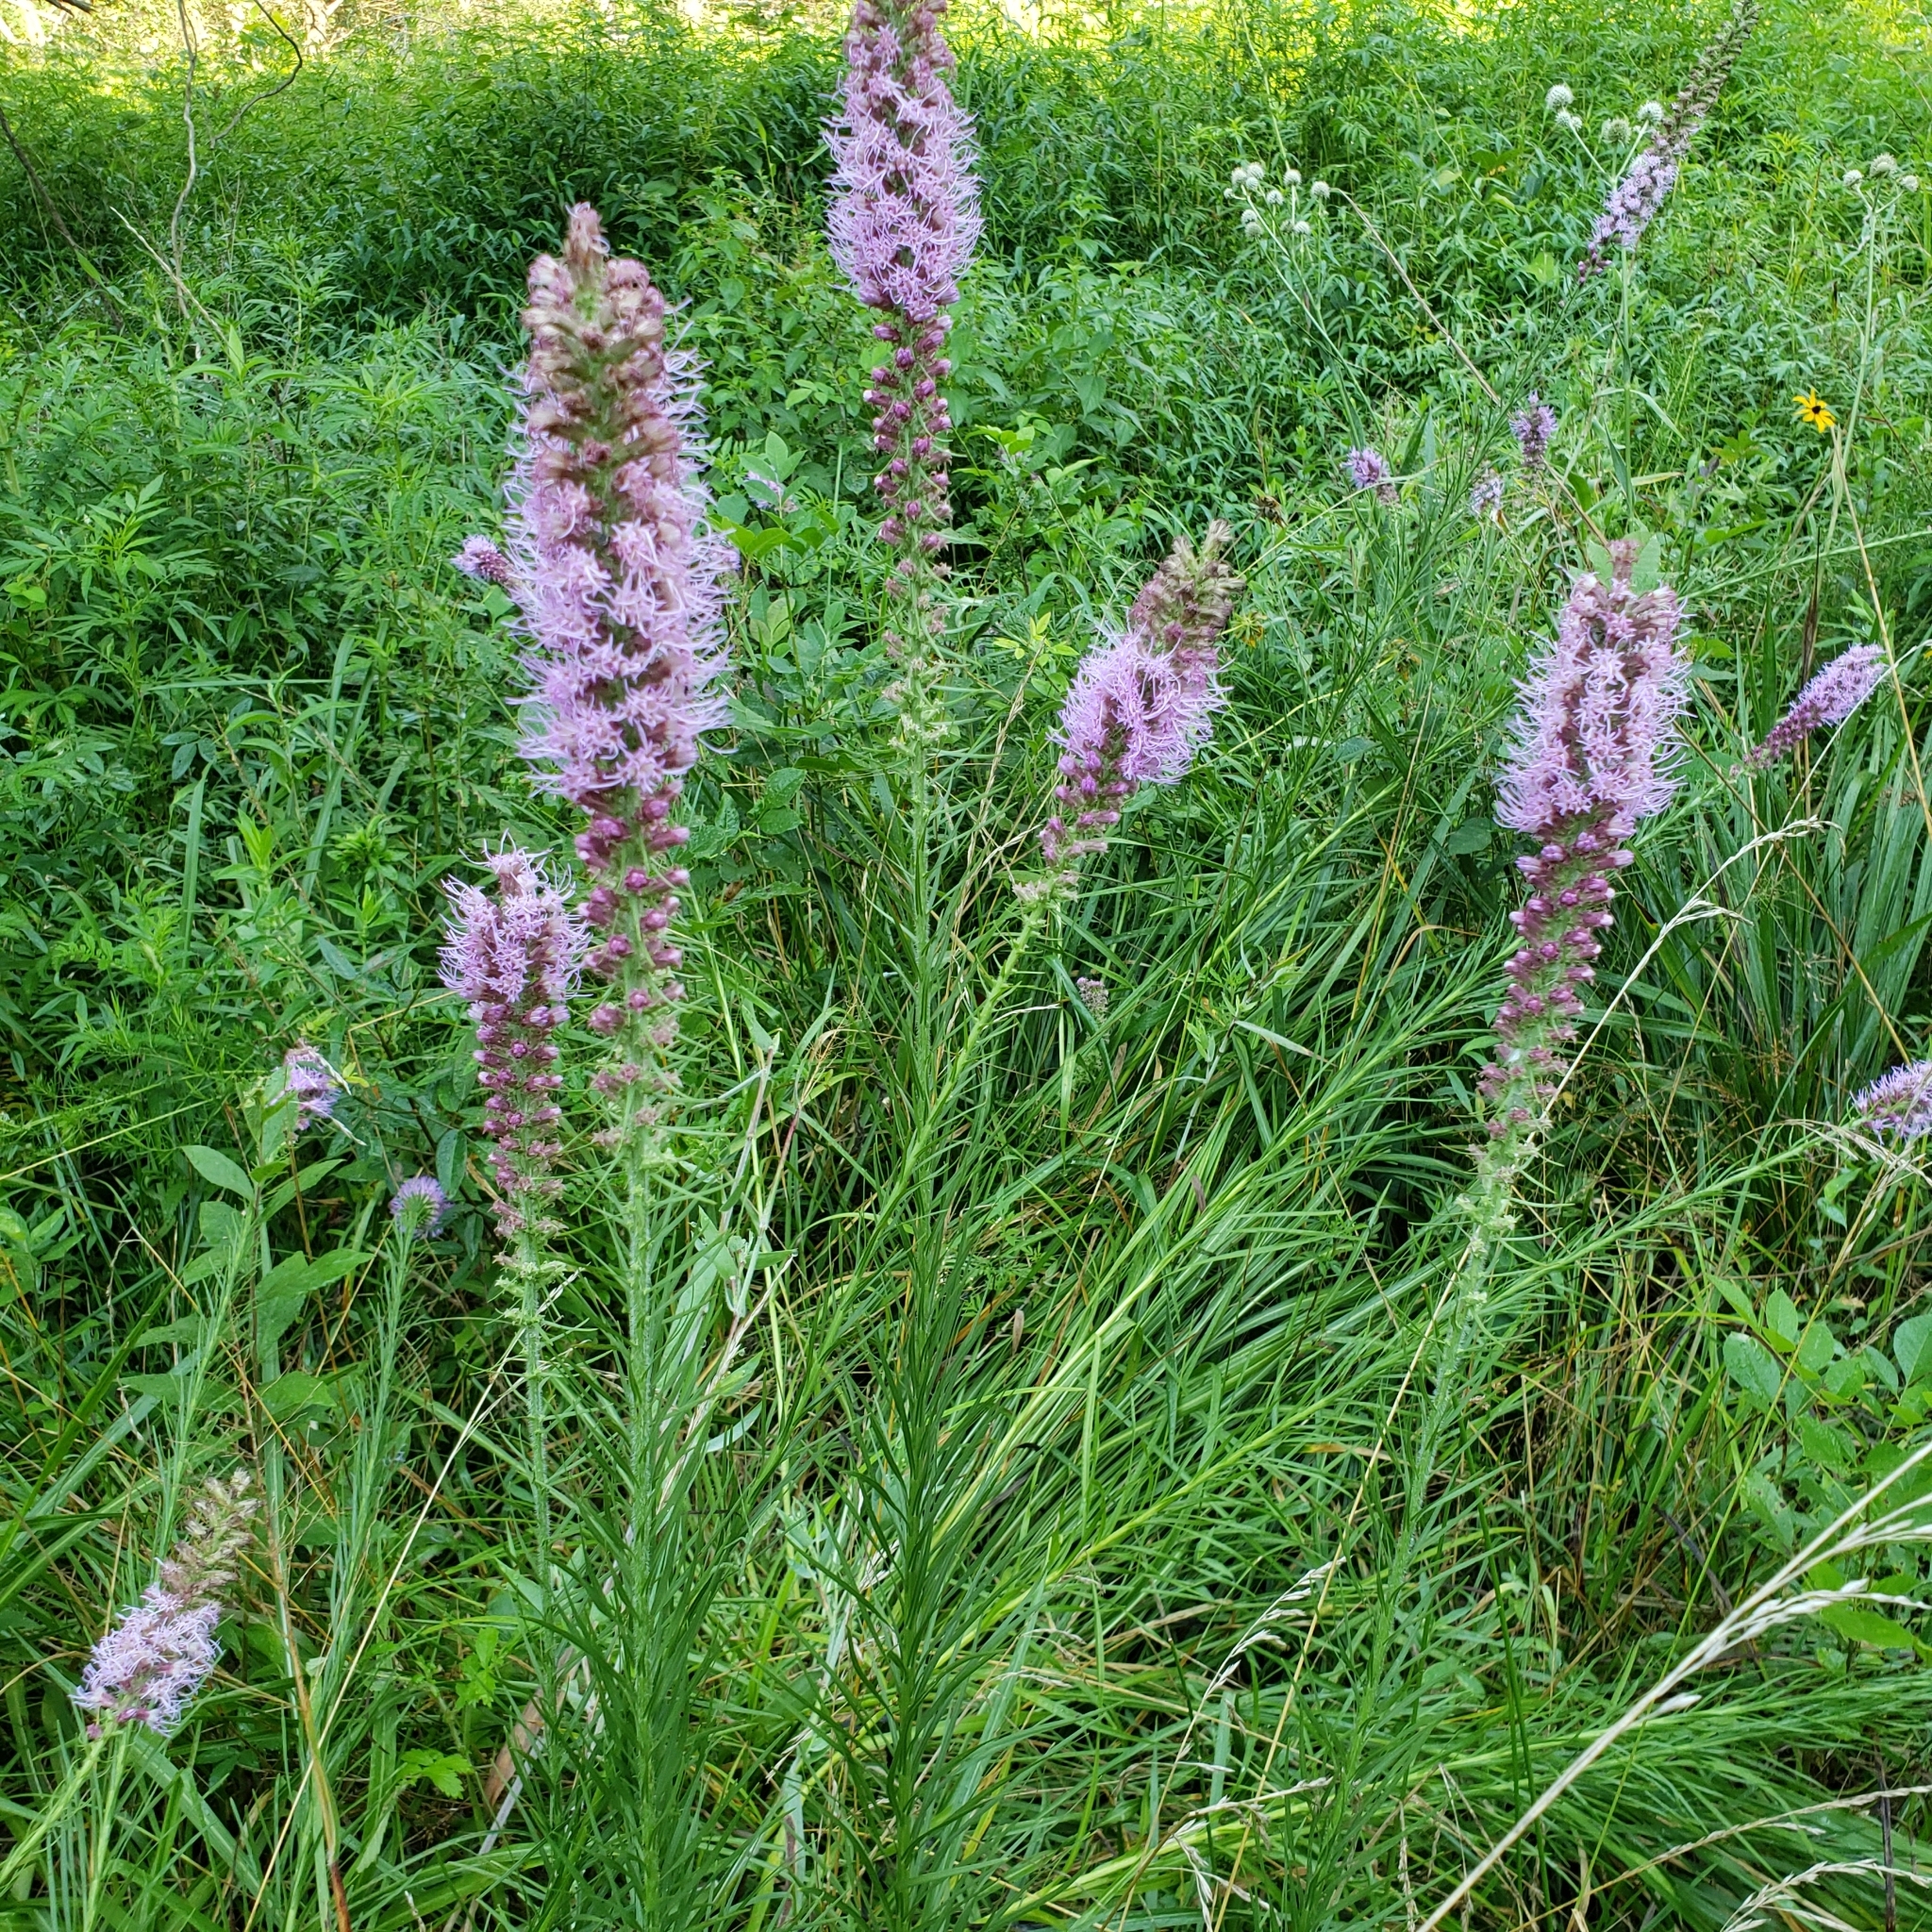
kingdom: Plantae
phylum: Tracheophyta
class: Magnoliopsida
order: Asterales
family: Asteraceae
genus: Liatris
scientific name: Liatris pycnostachya
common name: Cattail gayfeather
